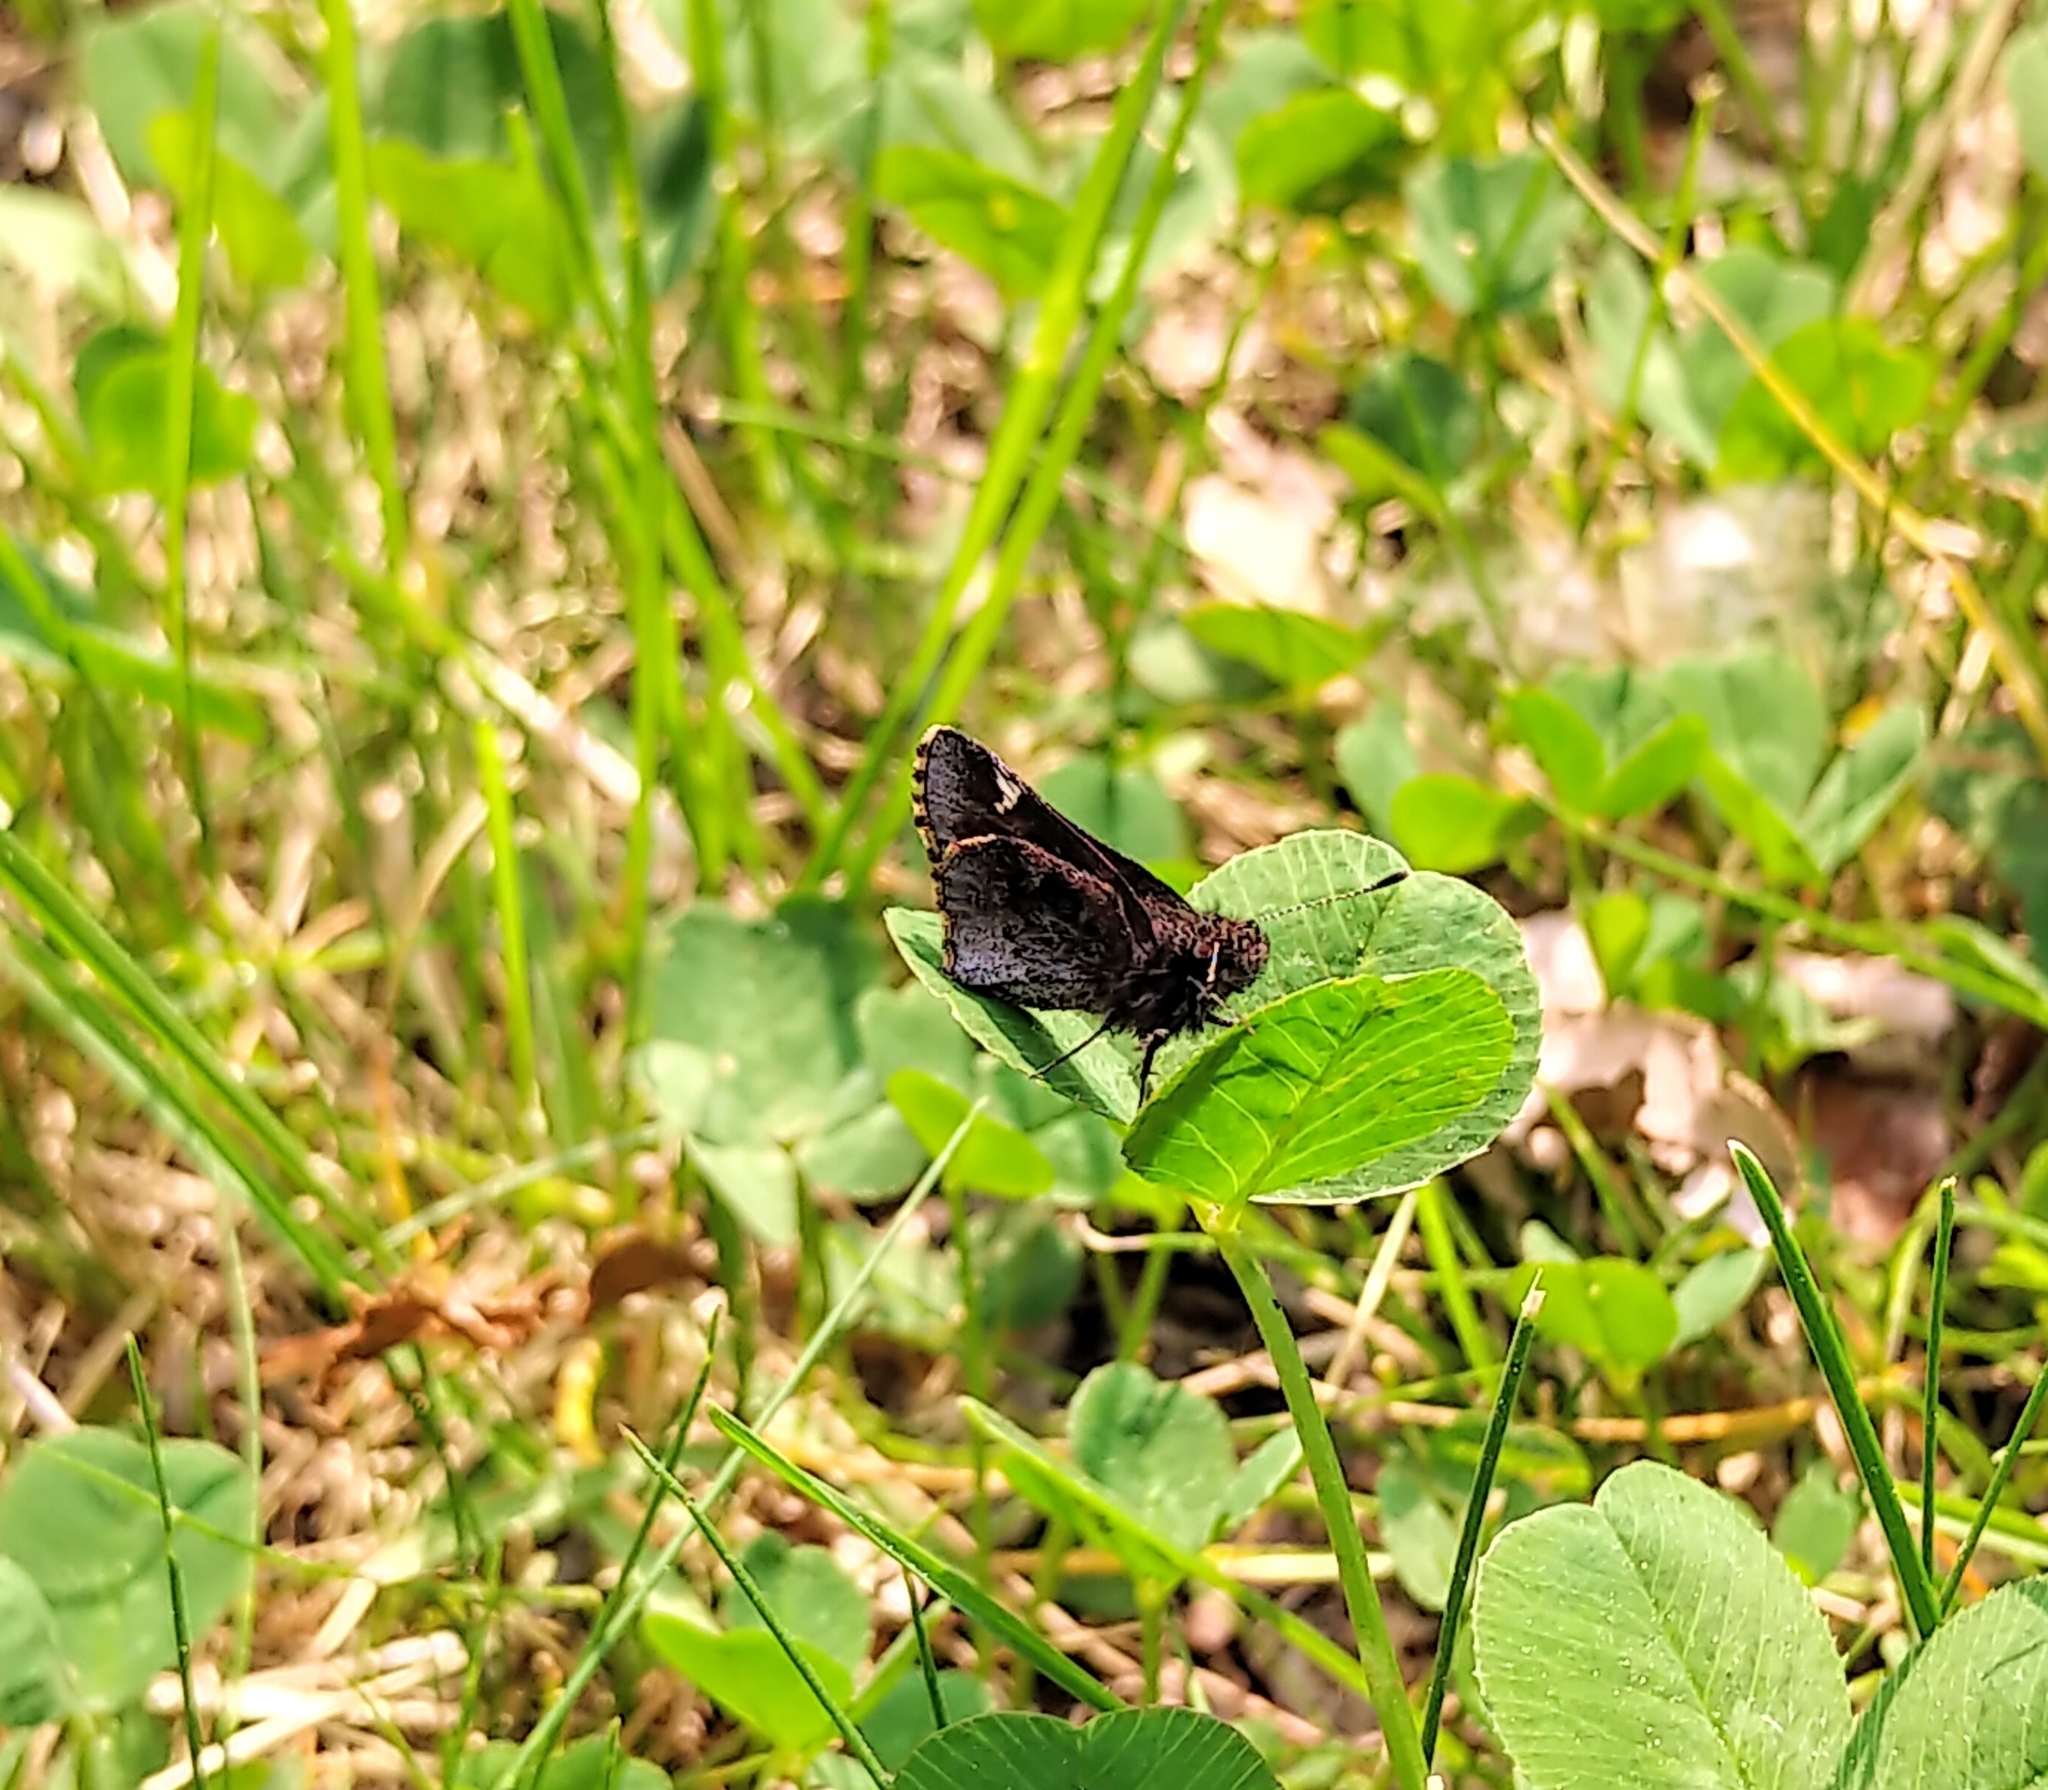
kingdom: Animalia
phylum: Arthropoda
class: Insecta
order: Lepidoptera
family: Hesperiidae
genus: Mastor
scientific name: Mastor vialis
